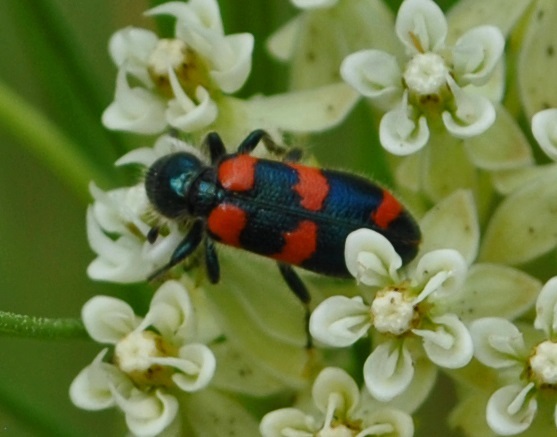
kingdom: Animalia
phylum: Arthropoda
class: Insecta
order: Coleoptera
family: Cleridae
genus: Trichodes
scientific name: Trichodes nutalli
